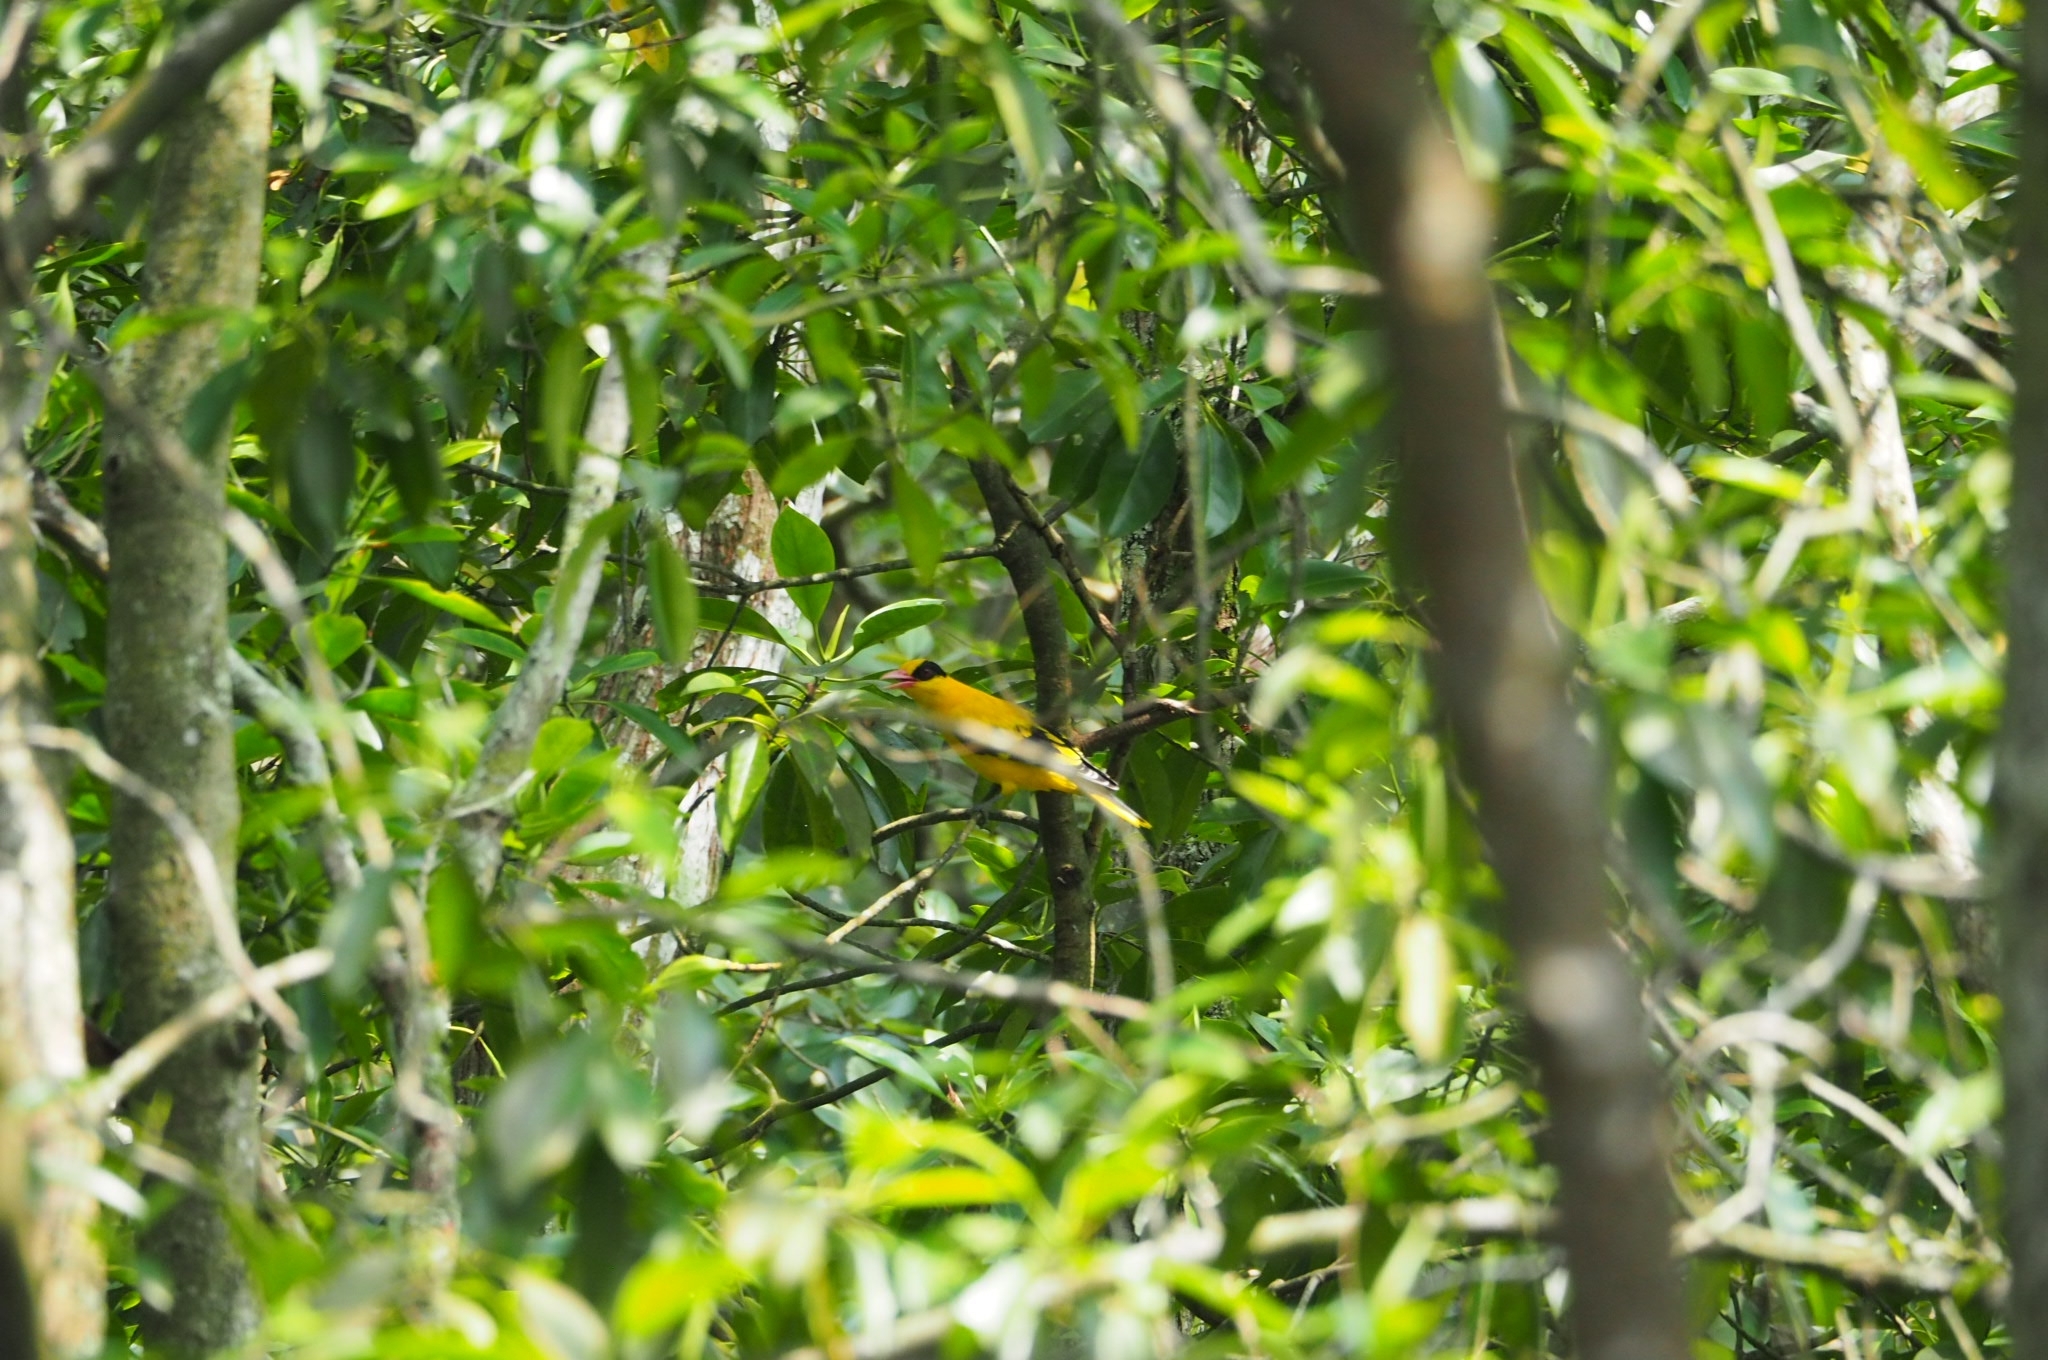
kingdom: Animalia
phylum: Chordata
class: Aves
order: Passeriformes
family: Oriolidae
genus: Oriolus
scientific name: Oriolus chinensis
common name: Black-naped oriole
